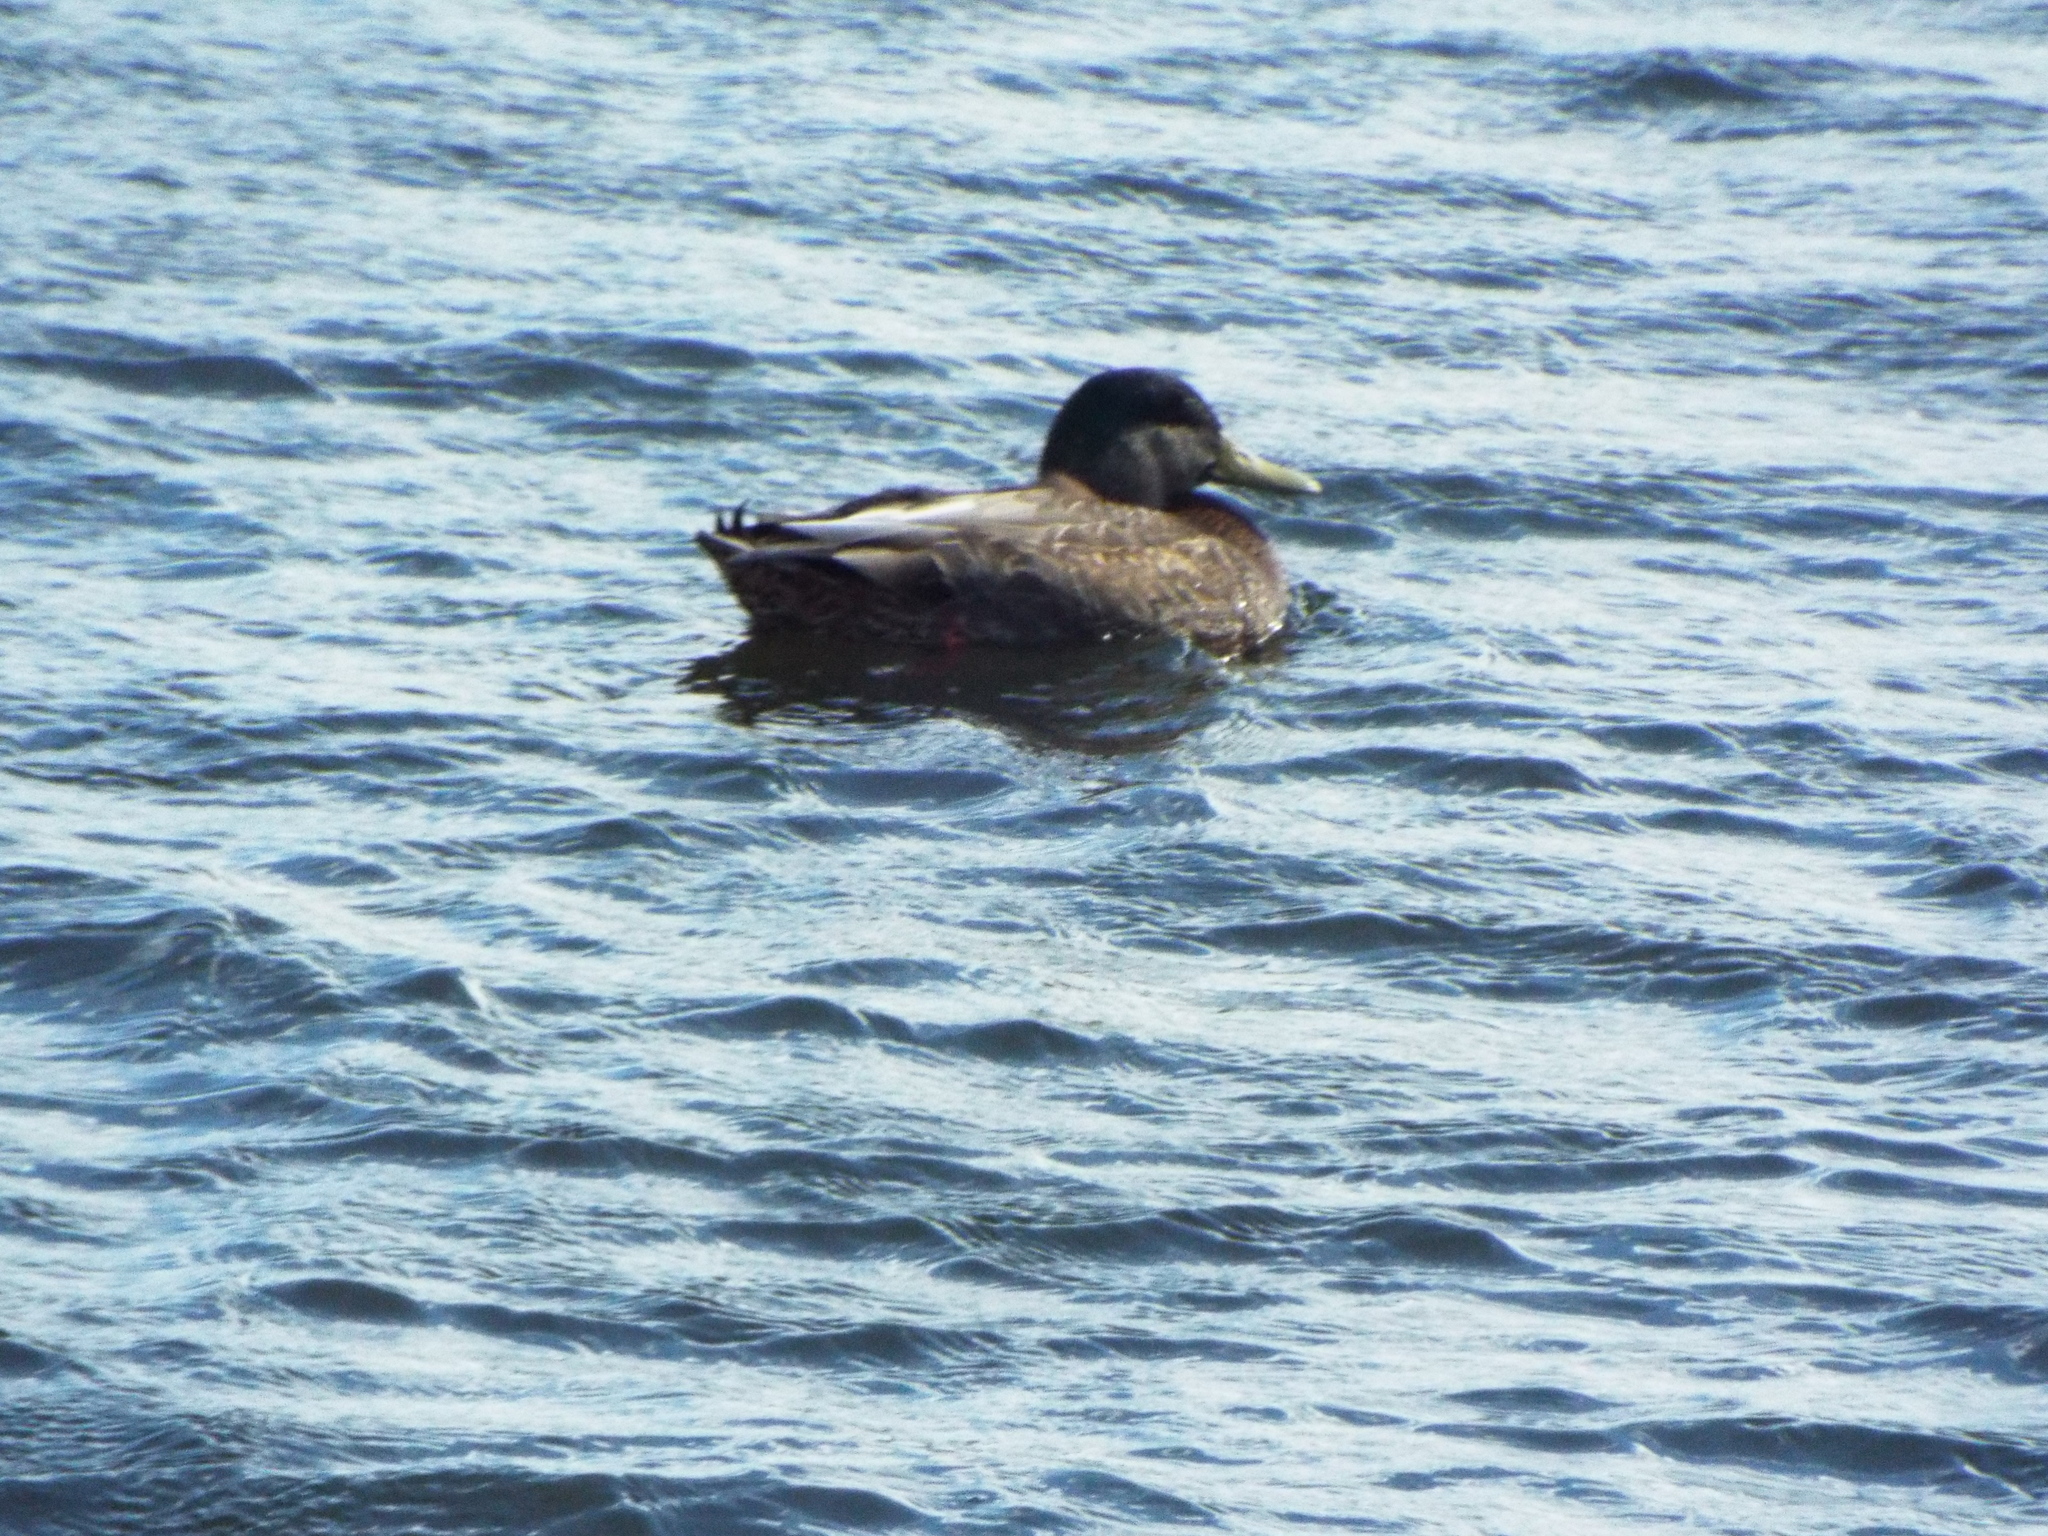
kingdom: Animalia
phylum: Chordata
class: Aves
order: Anseriformes
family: Anatidae
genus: Anas
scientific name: Anas
